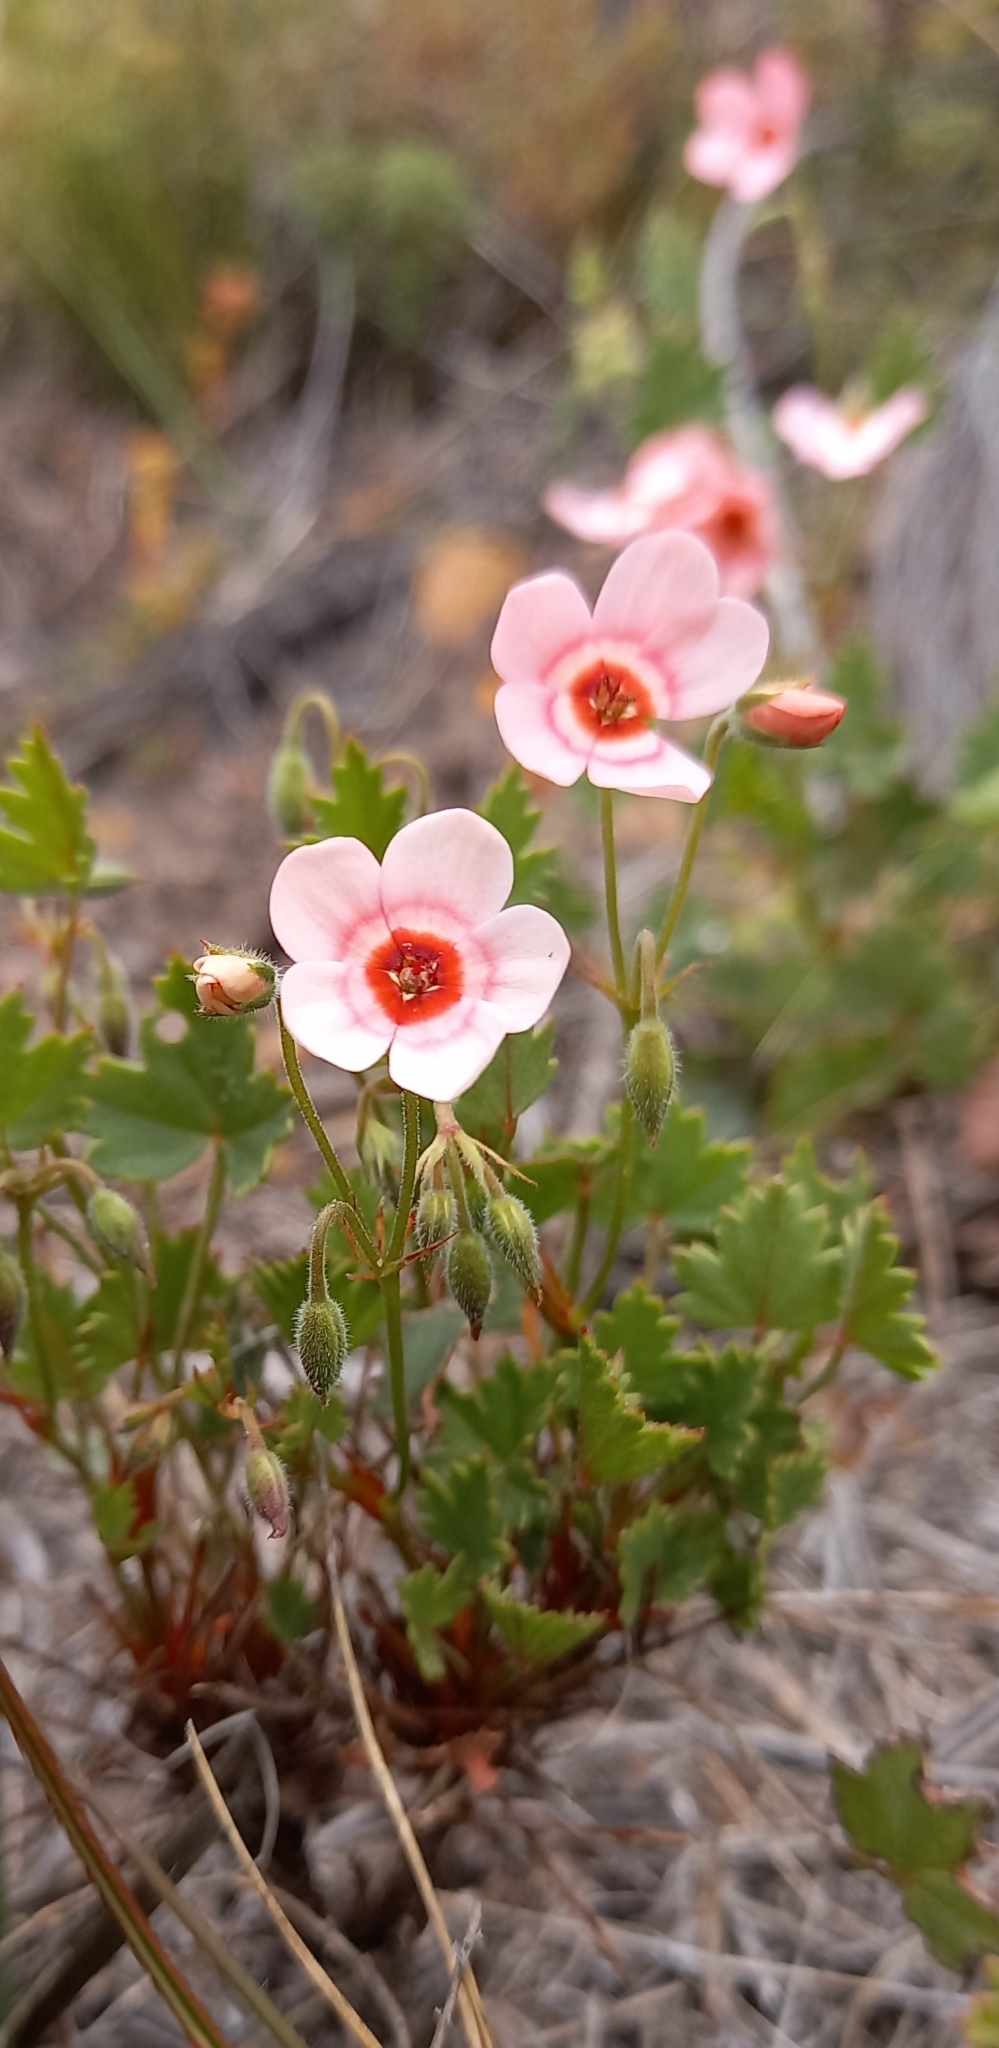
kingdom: Plantae
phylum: Tracheophyta
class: Magnoliopsida
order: Geraniales
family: Geraniaceae
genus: Pelargonium
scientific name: Pelargonium incarnatum
